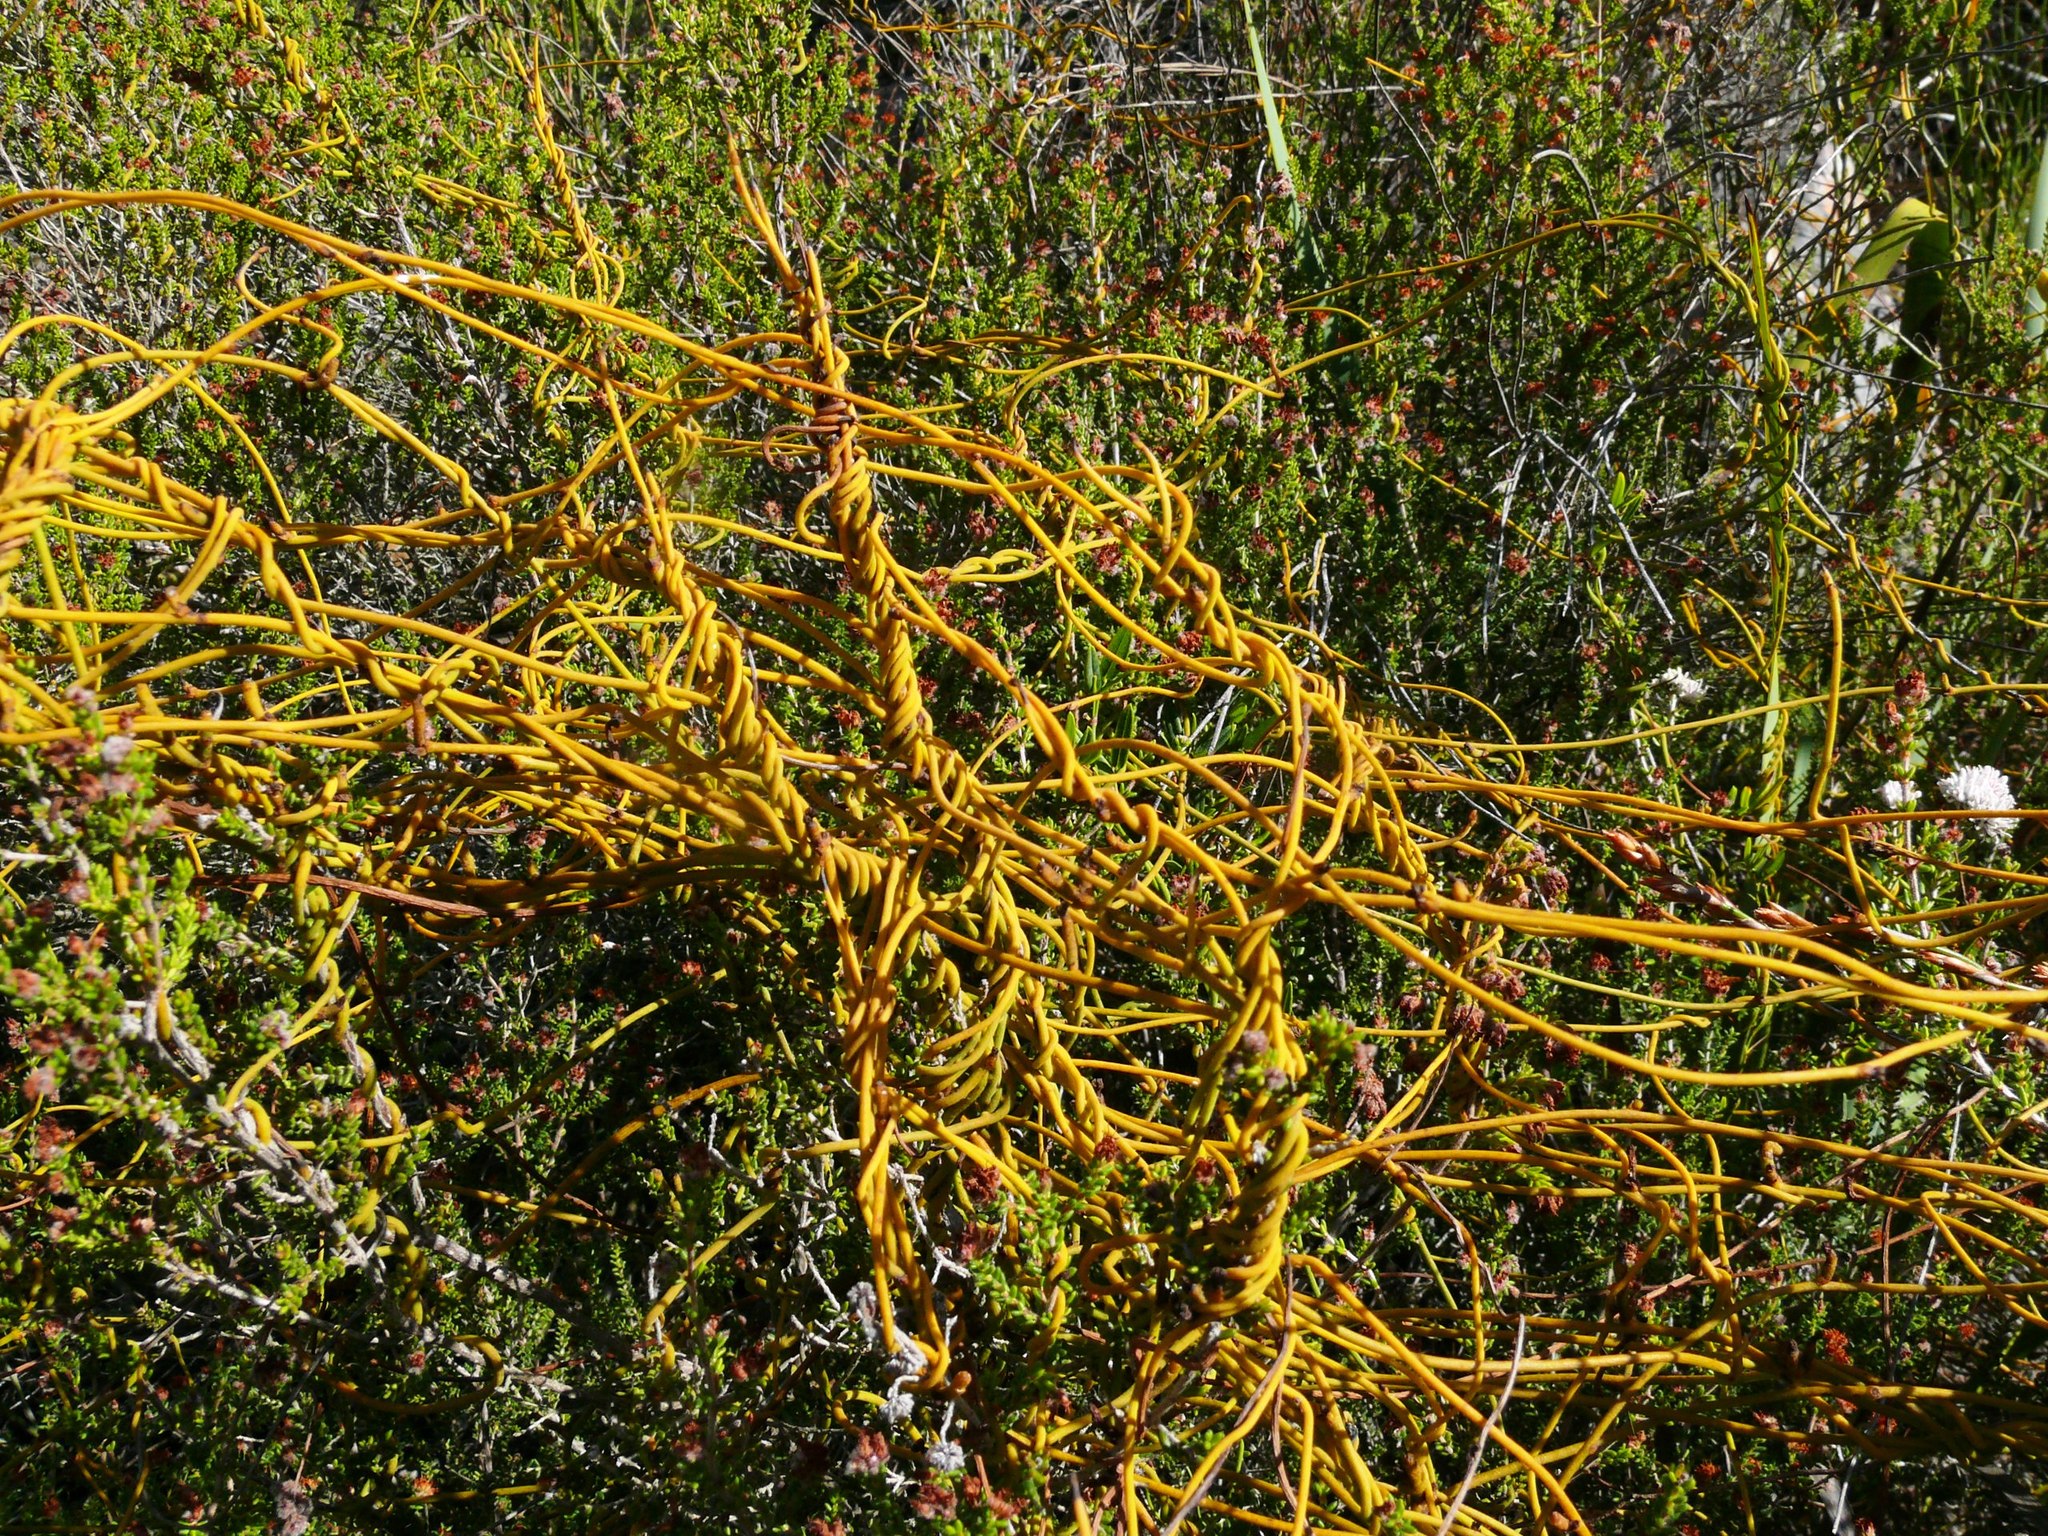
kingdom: Plantae
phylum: Tracheophyta
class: Magnoliopsida
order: Laurales
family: Lauraceae
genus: Cassytha
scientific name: Cassytha ciliolata
